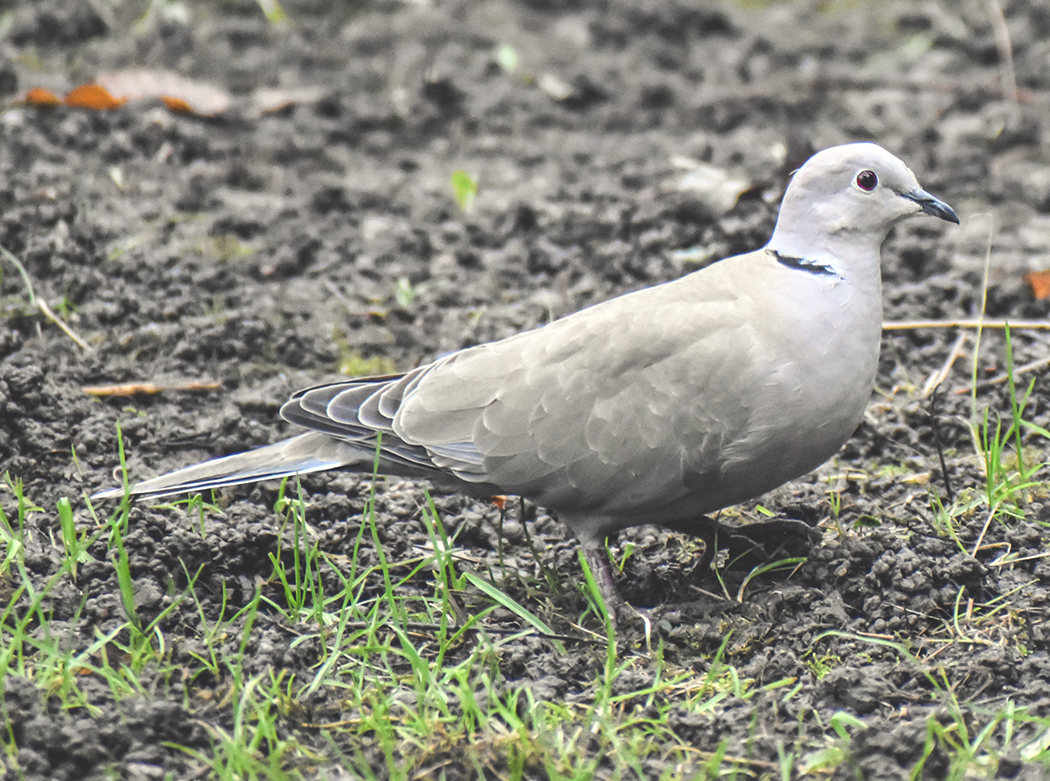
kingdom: Animalia
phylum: Chordata
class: Aves
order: Columbiformes
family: Columbidae
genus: Streptopelia
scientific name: Streptopelia decaocto
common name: Eurasian collared dove
